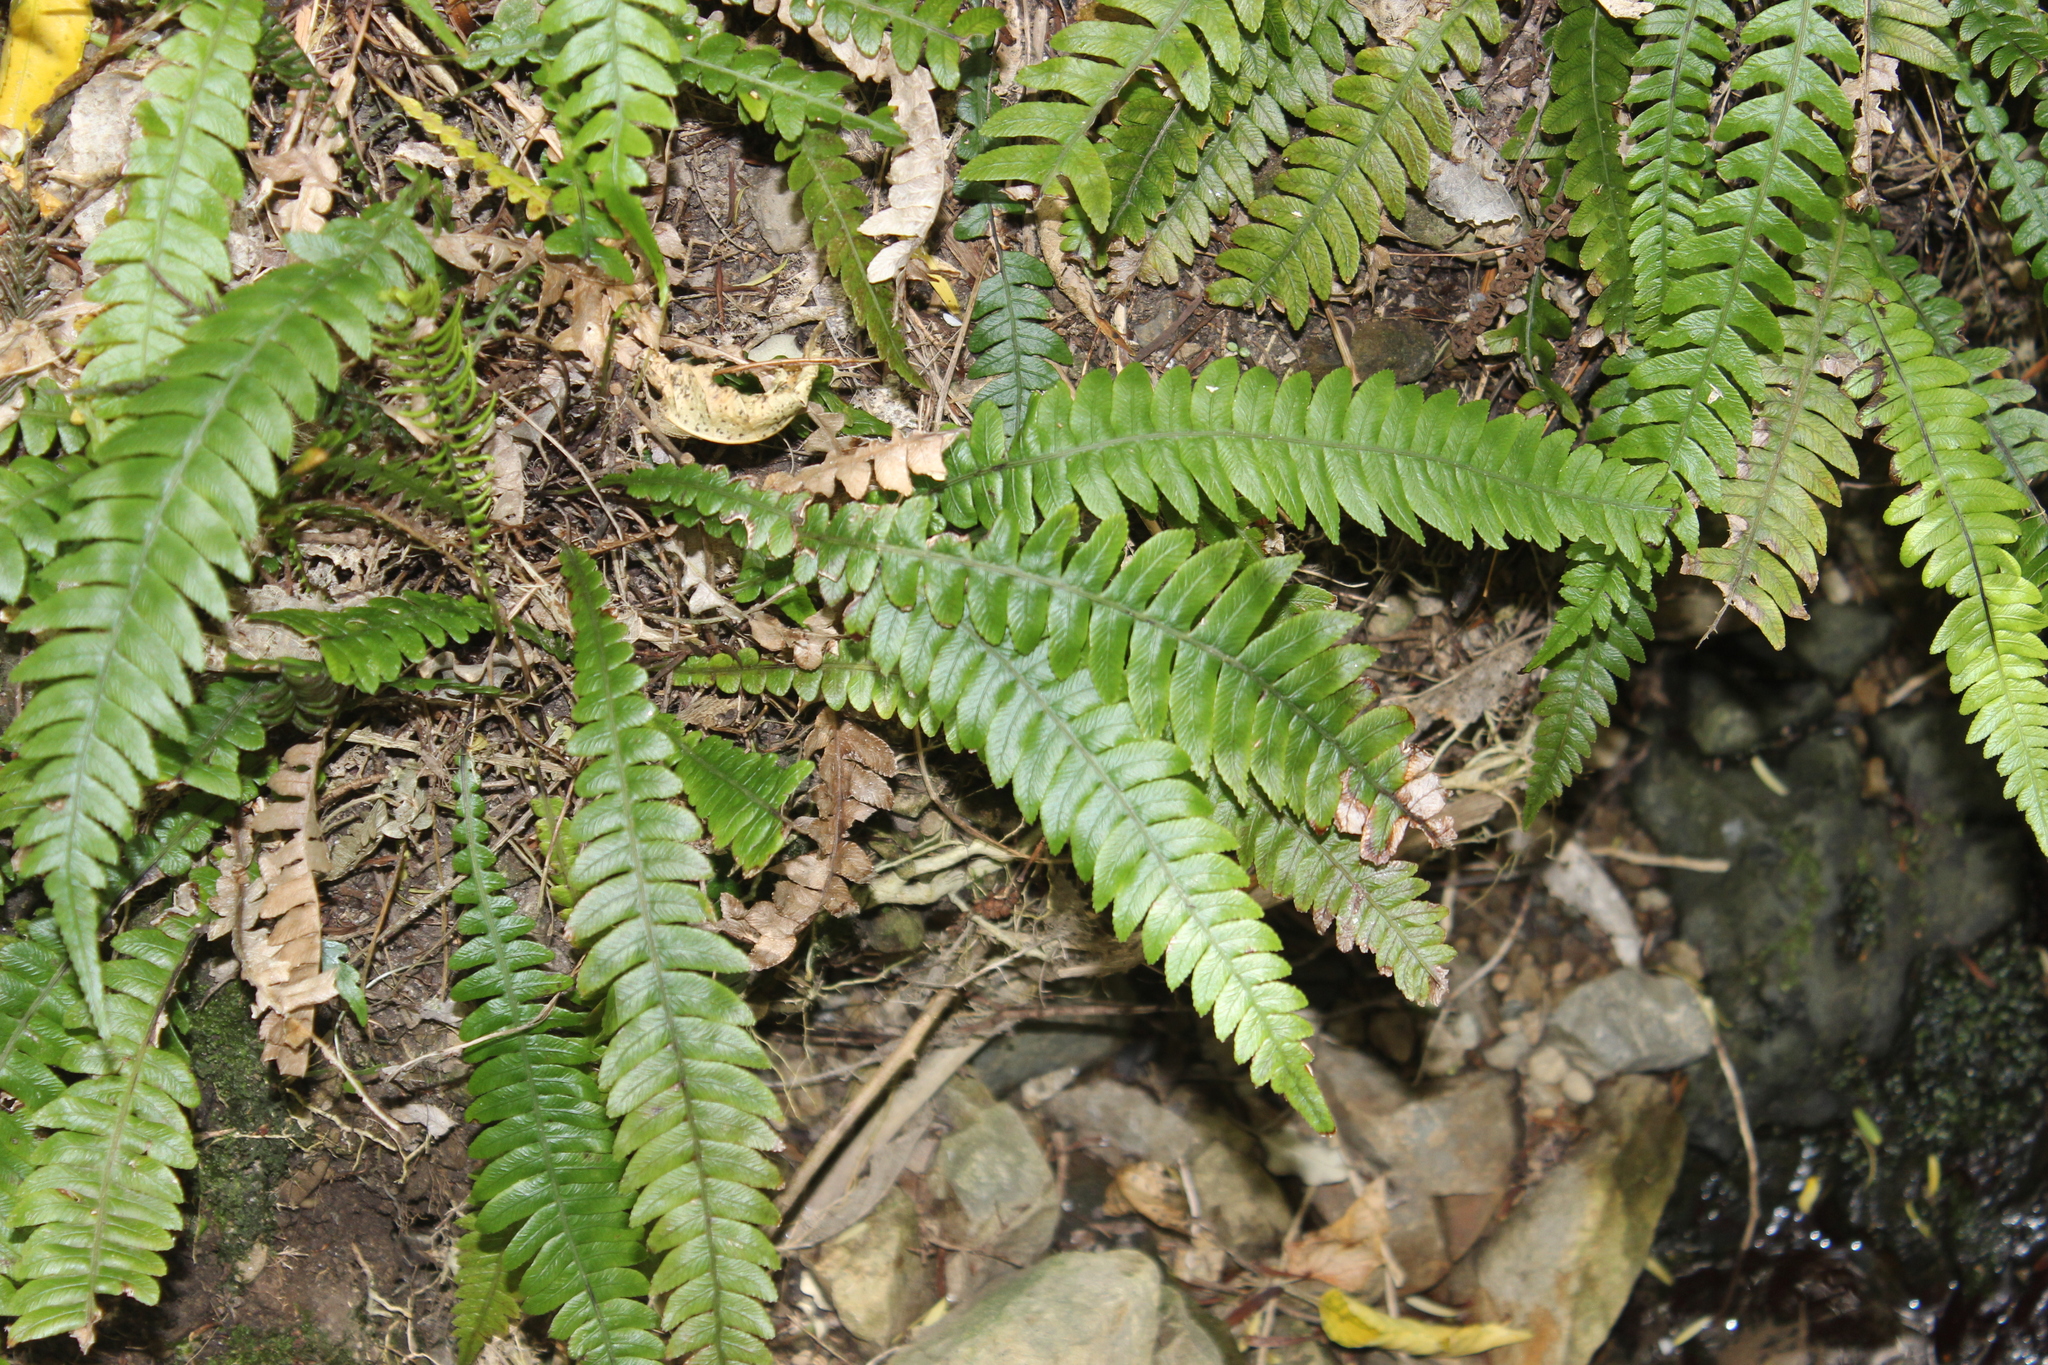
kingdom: Plantae
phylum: Tracheophyta
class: Polypodiopsida
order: Polypodiales
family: Blechnaceae
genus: Austroblechnum
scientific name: Austroblechnum lanceolatum
